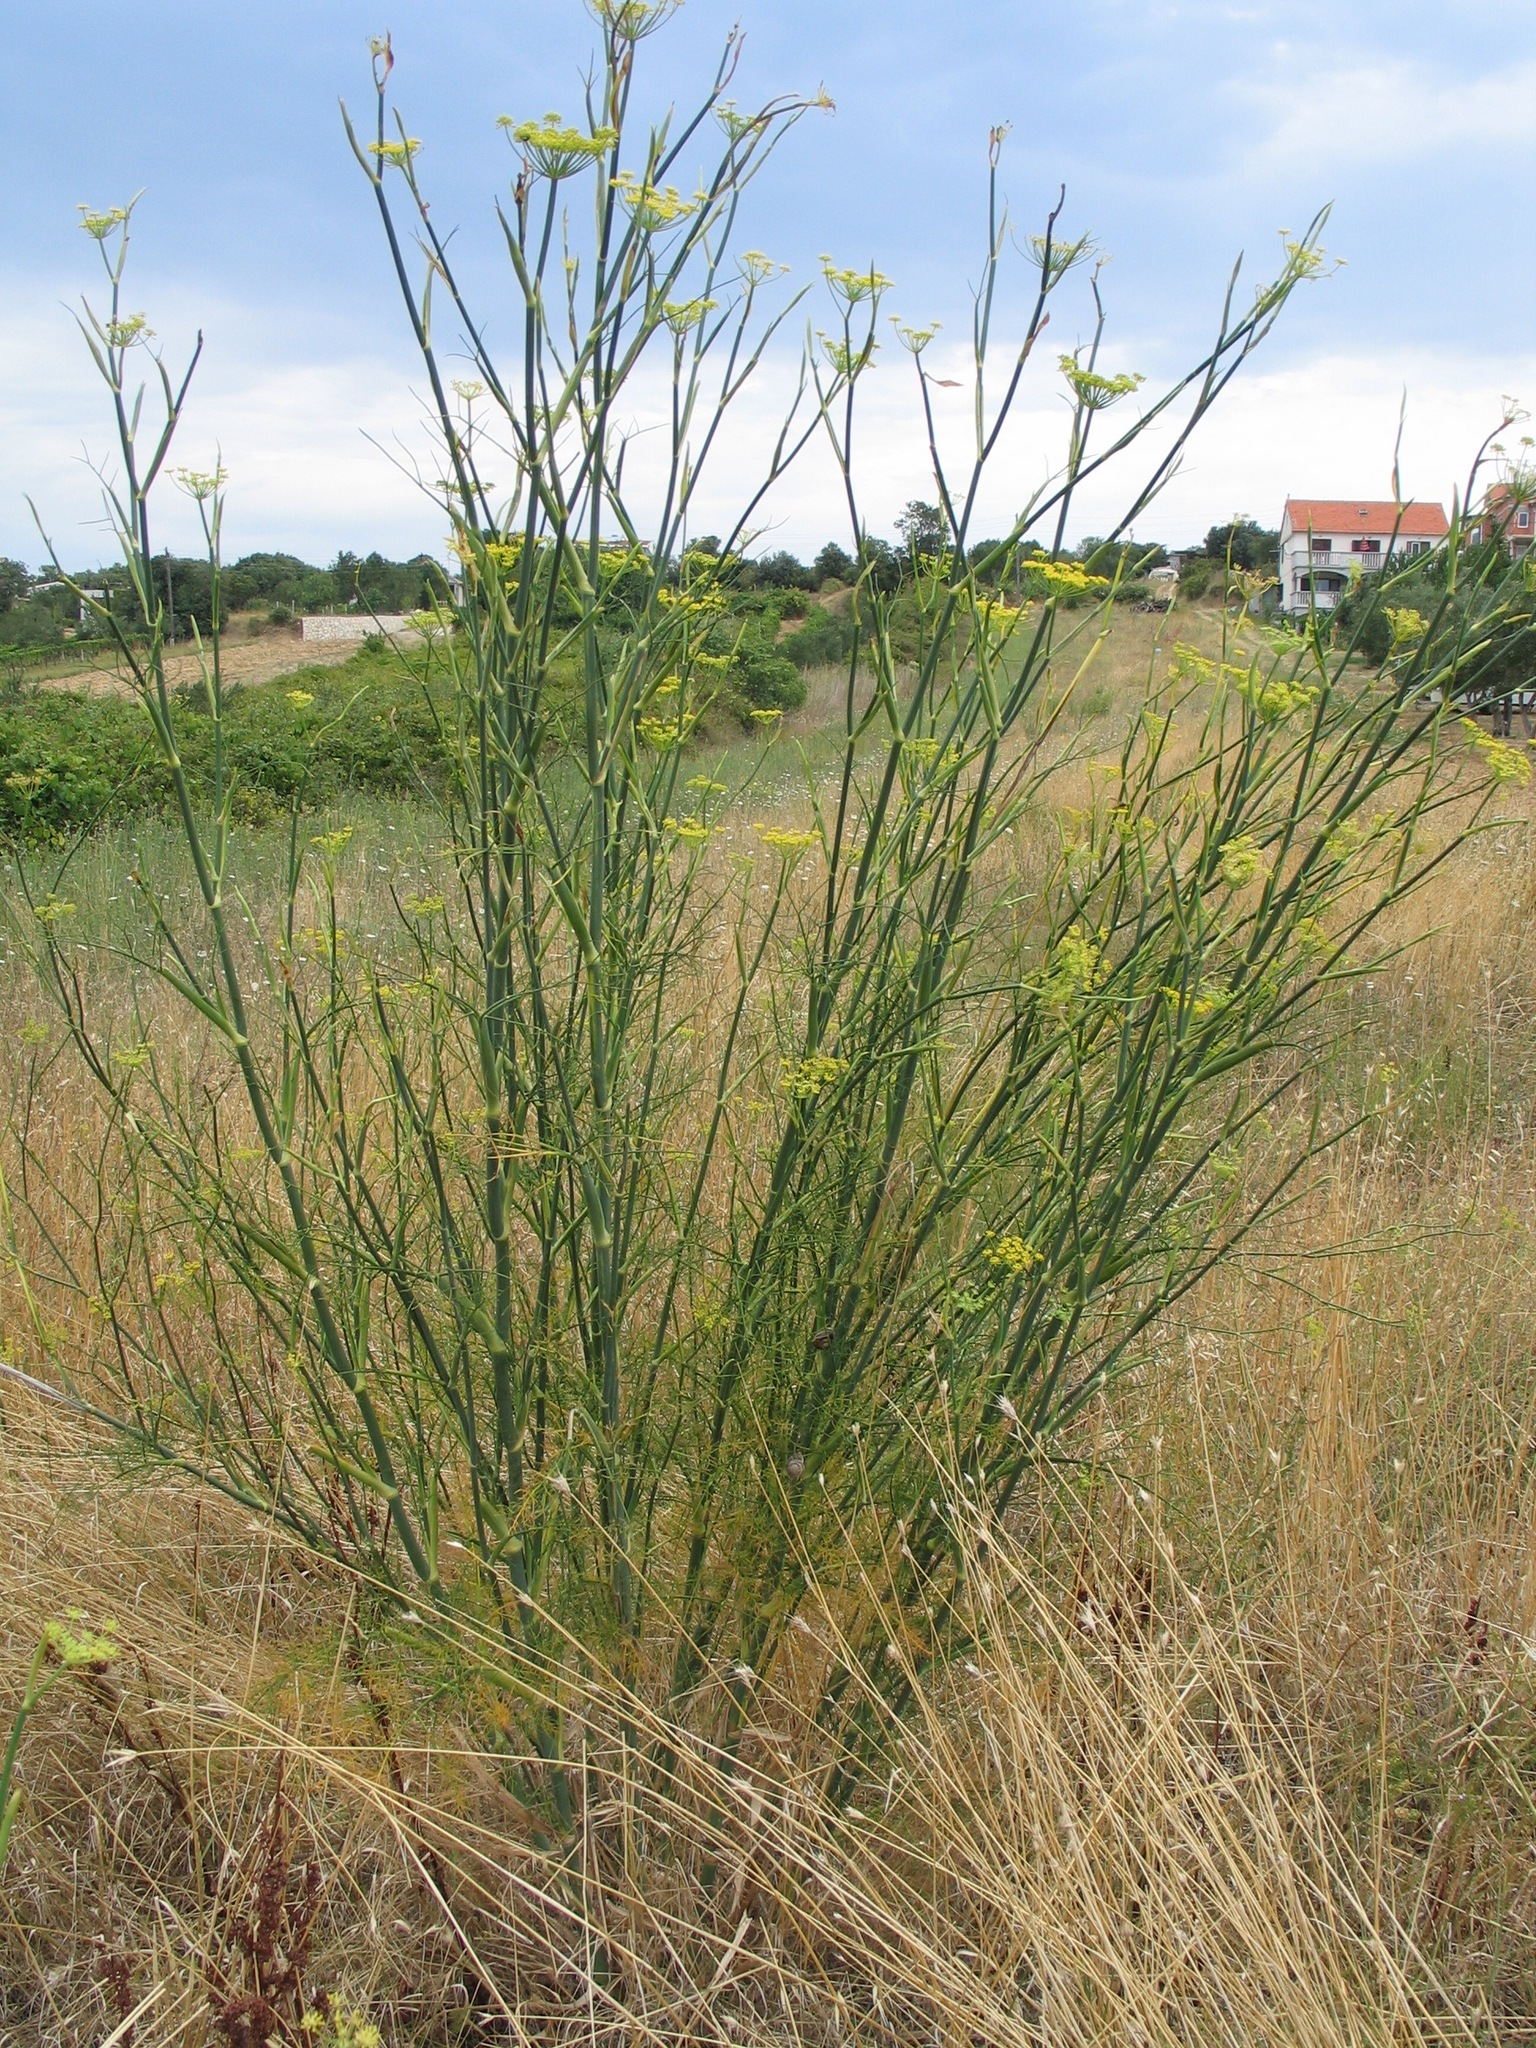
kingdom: Plantae
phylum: Tracheophyta
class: Magnoliopsida
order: Apiales
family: Apiaceae
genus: Foeniculum
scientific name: Foeniculum vulgare
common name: Fennel
